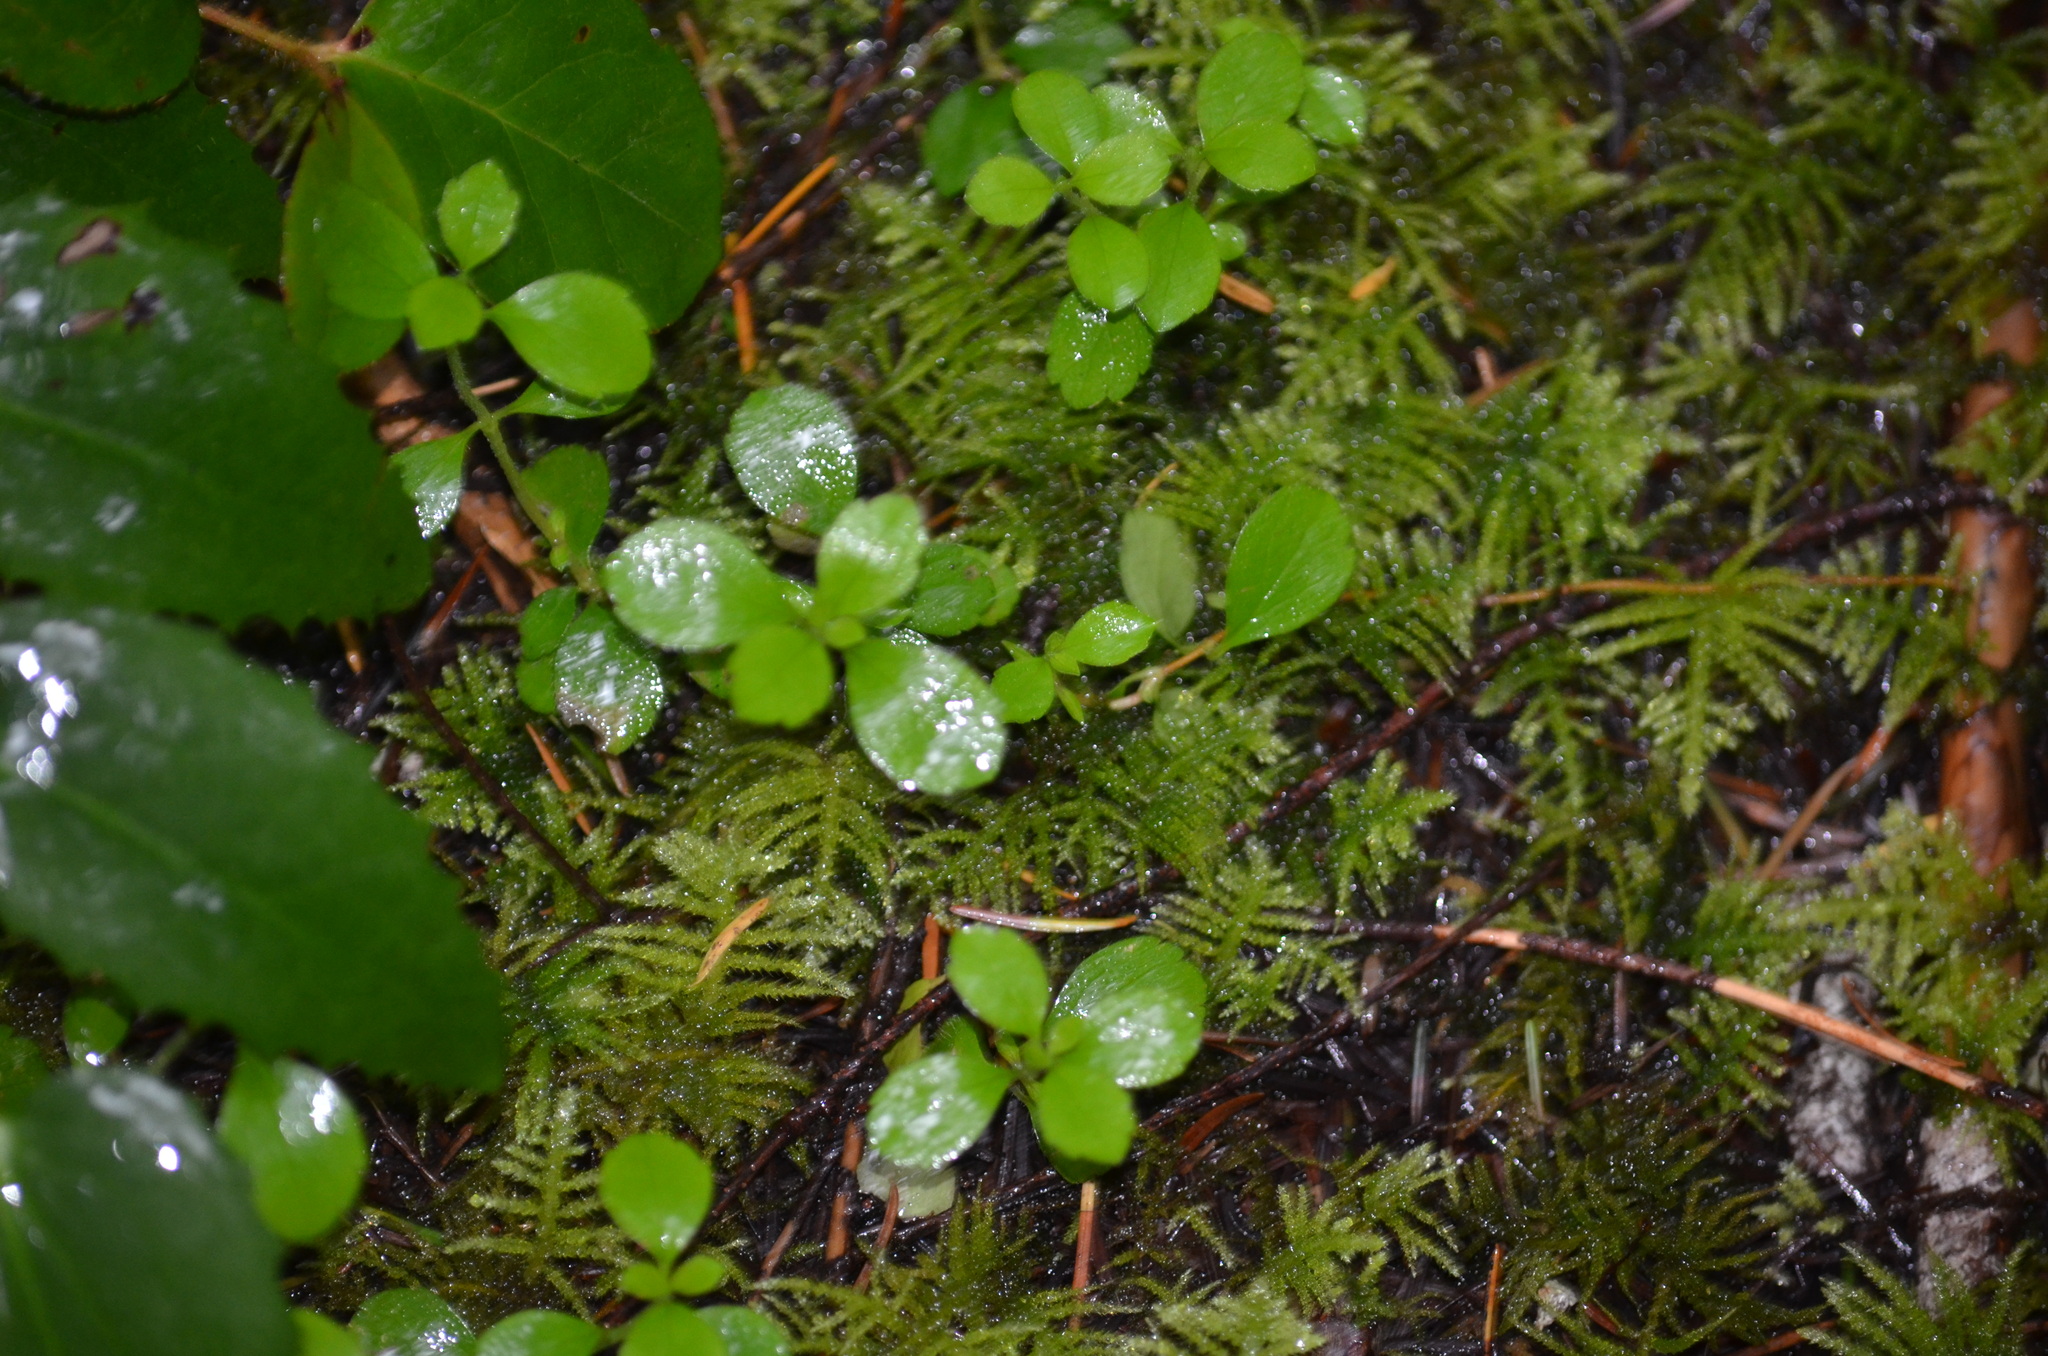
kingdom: Plantae
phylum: Tracheophyta
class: Magnoliopsida
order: Dipsacales
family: Caprifoliaceae
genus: Linnaea
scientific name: Linnaea borealis
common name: Twinflower
